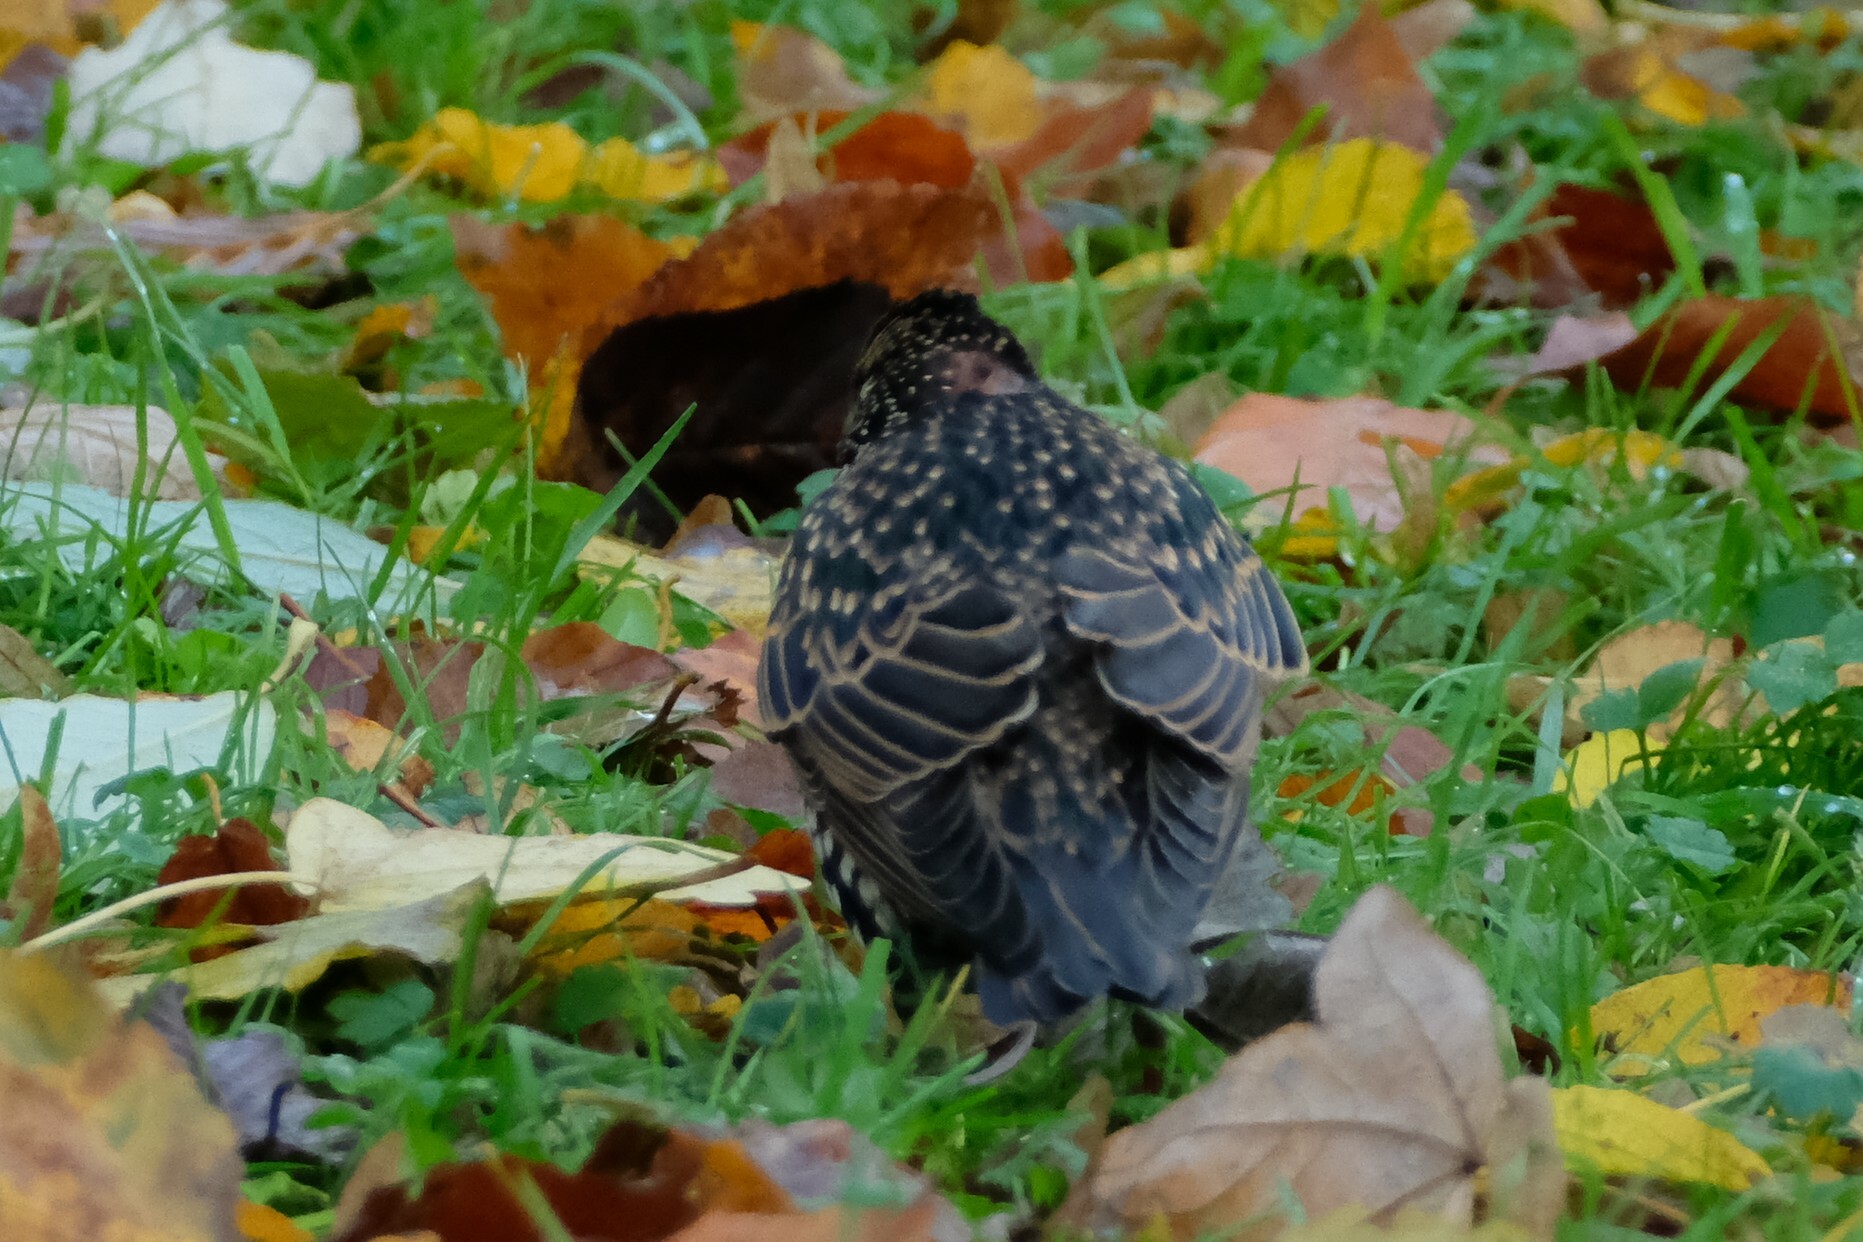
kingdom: Animalia
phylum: Chordata
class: Aves
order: Passeriformes
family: Sturnidae
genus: Sturnus
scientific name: Sturnus vulgaris
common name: Common starling
